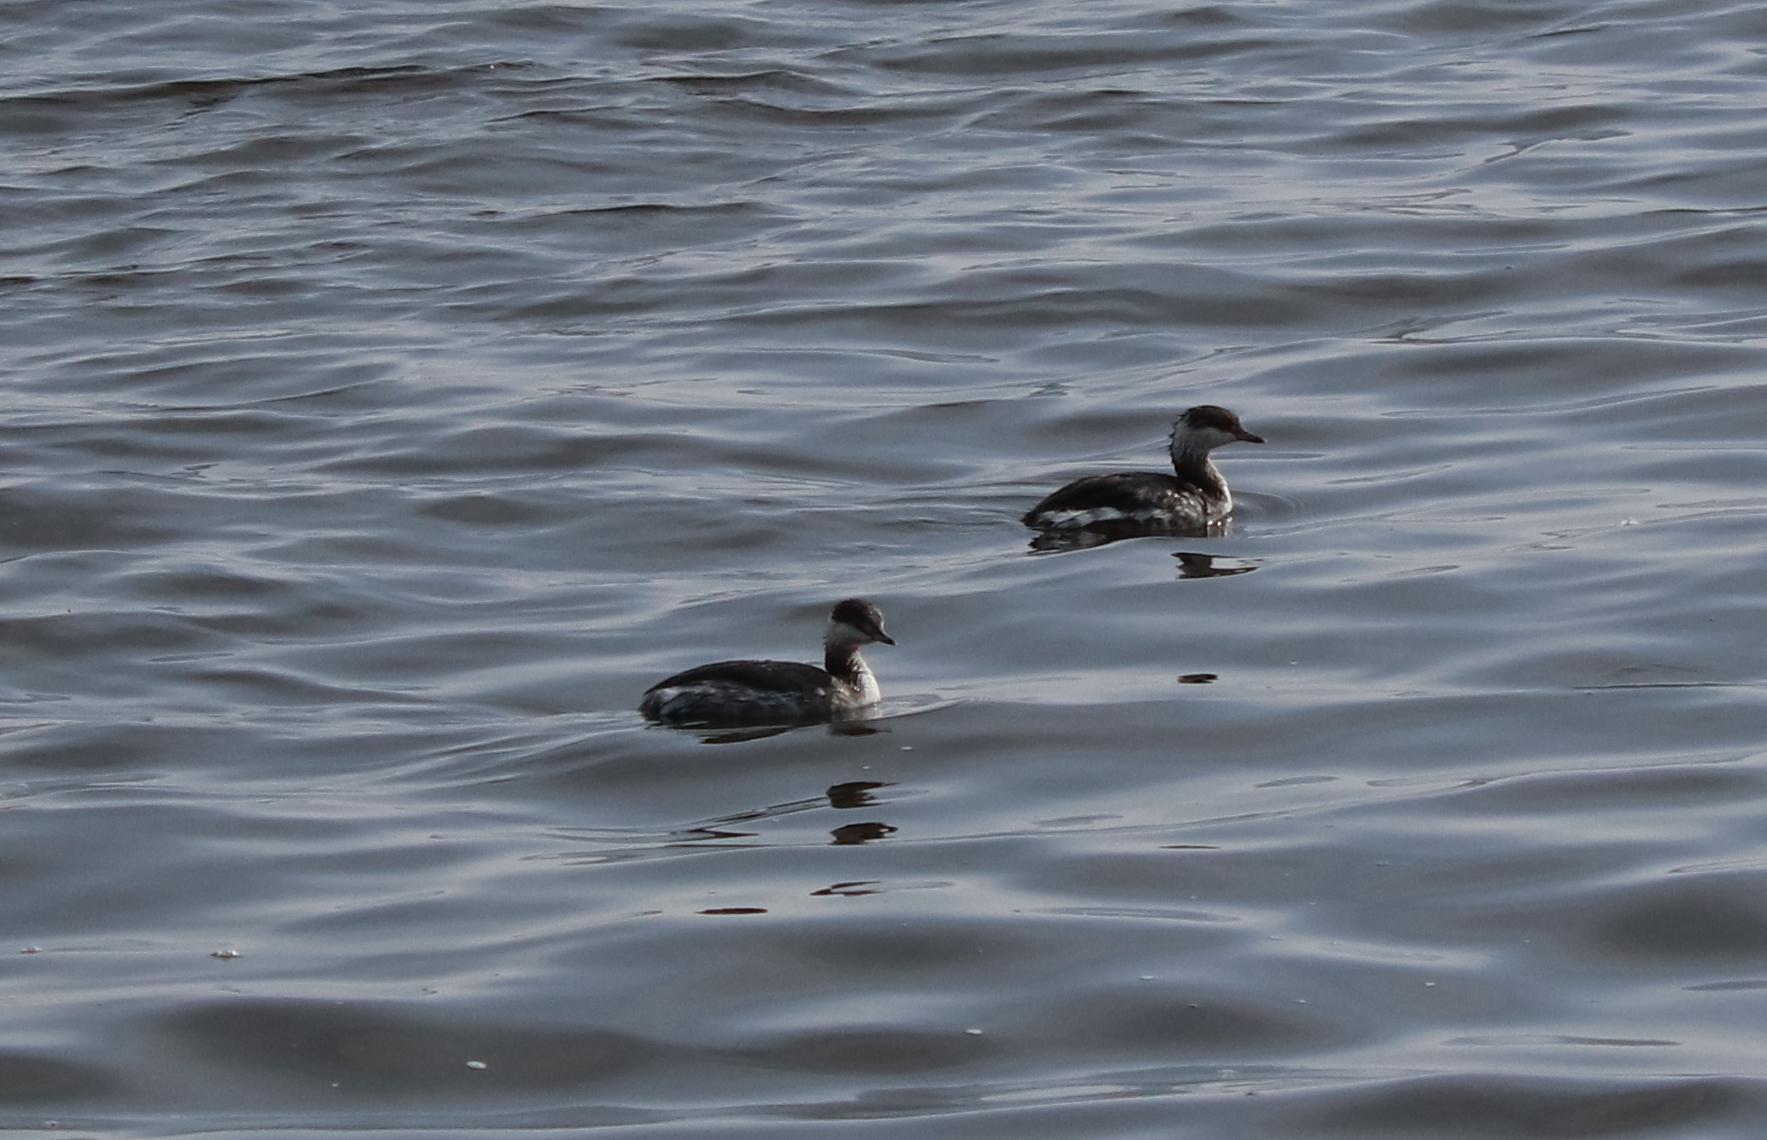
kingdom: Animalia
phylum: Chordata
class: Aves
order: Podicipediformes
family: Podicipedidae
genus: Podiceps
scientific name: Podiceps auritus
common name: Horned grebe
